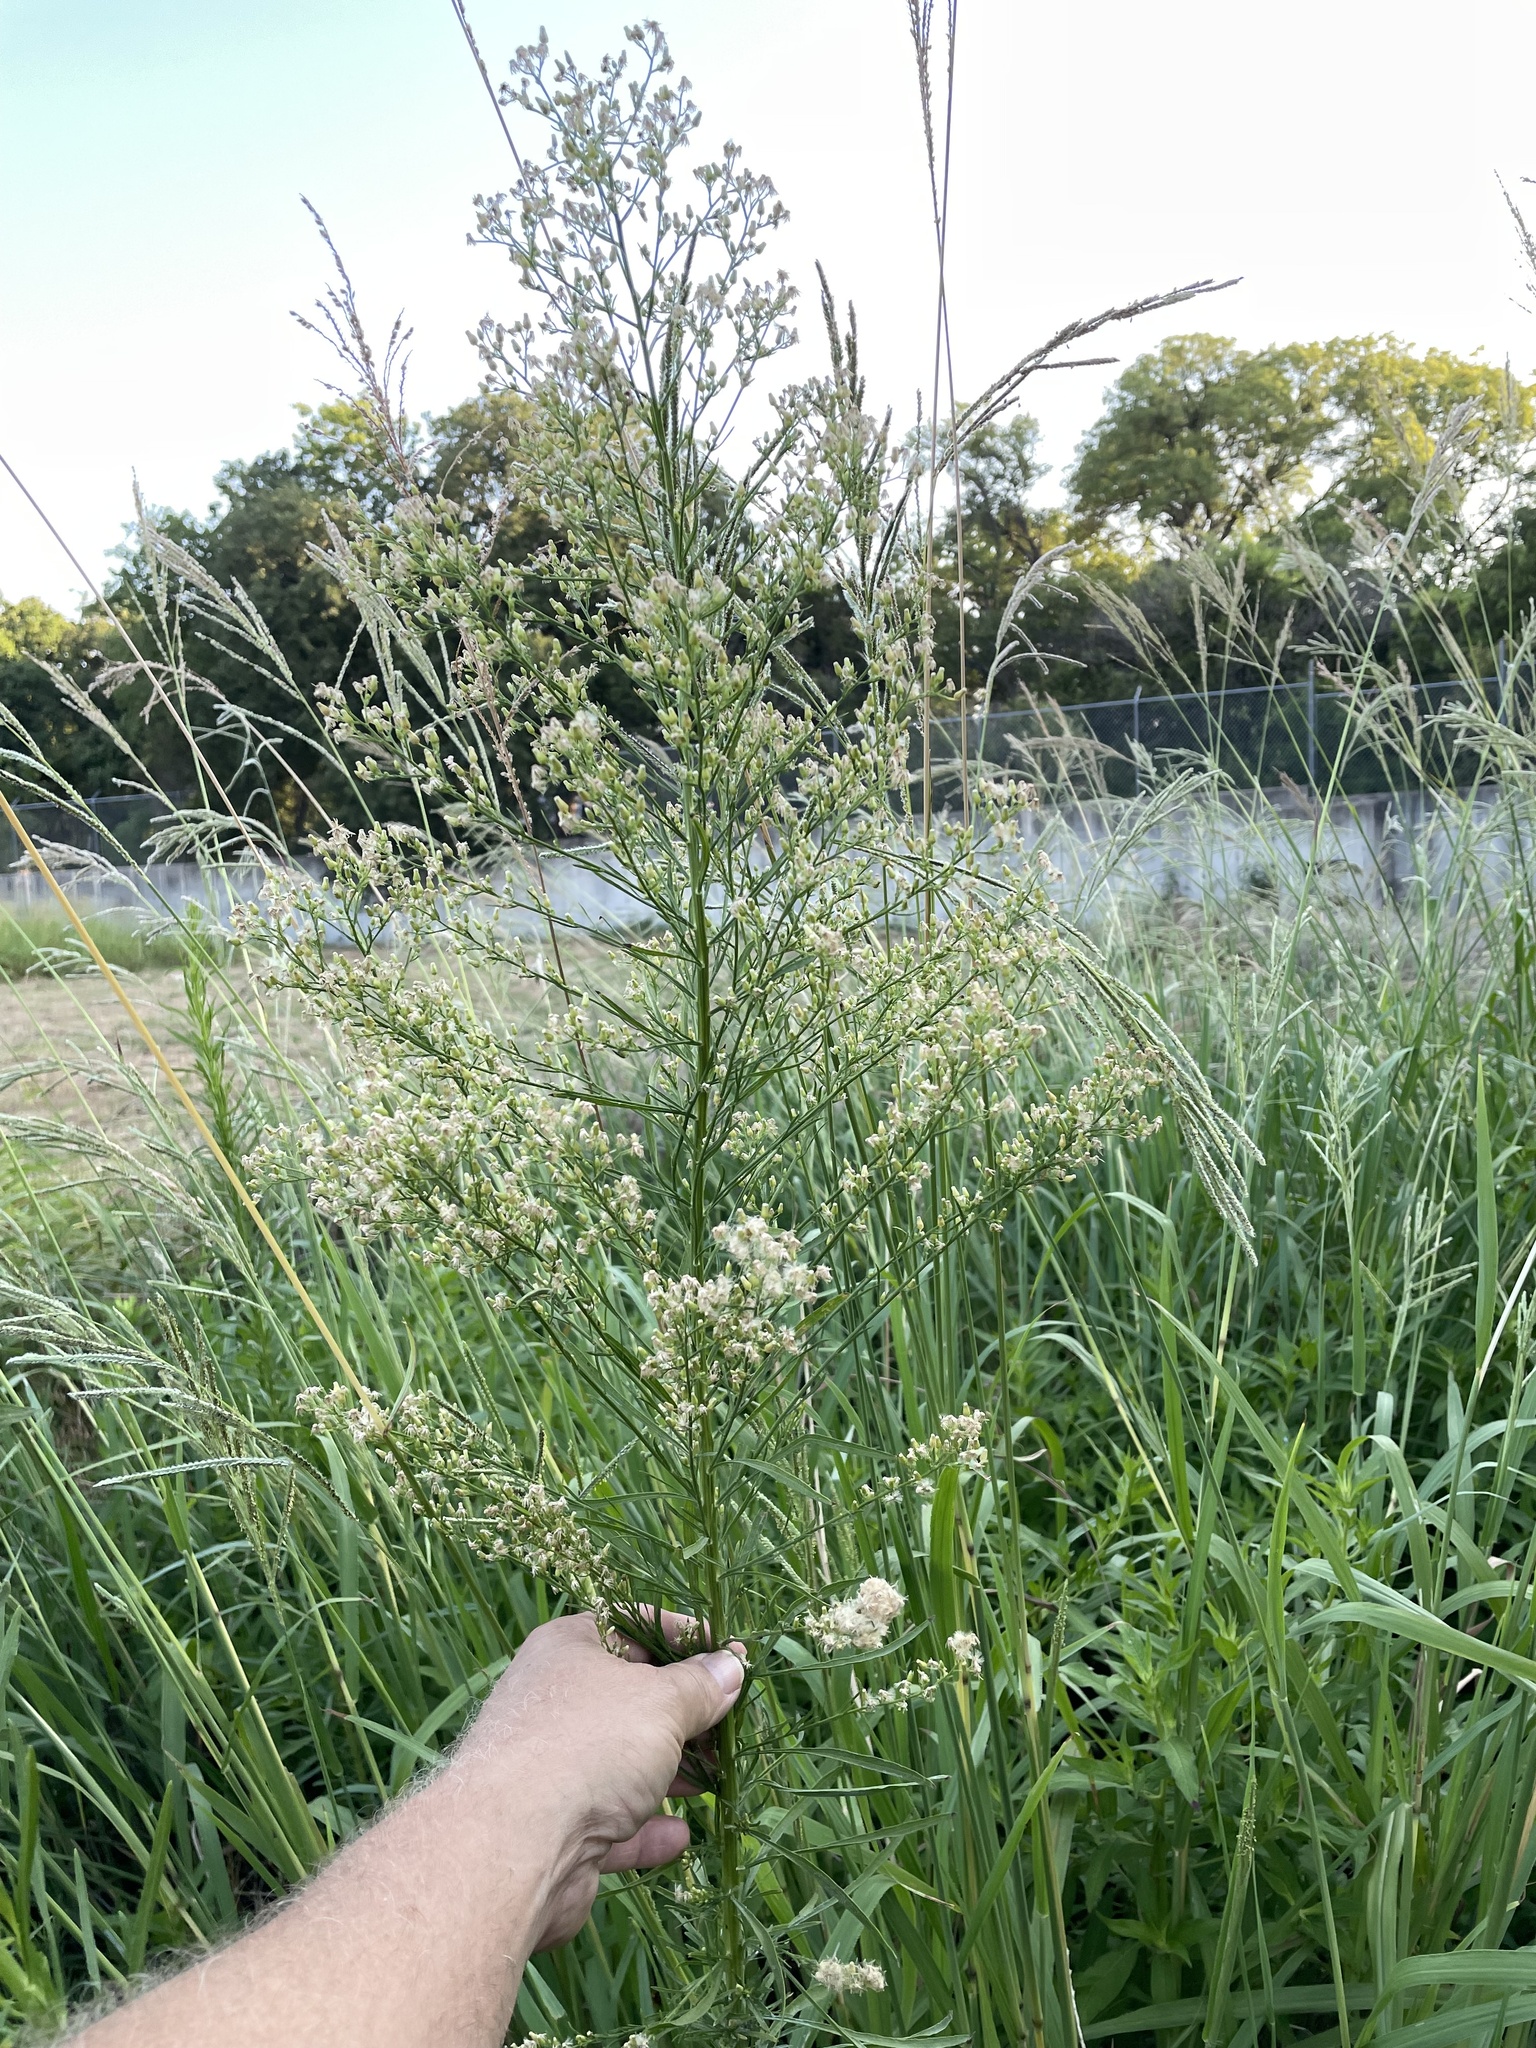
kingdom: Plantae
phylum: Tracheophyta
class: Magnoliopsida
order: Asterales
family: Asteraceae
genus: Erigeron
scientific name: Erigeron canadensis
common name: Canadian fleabane
